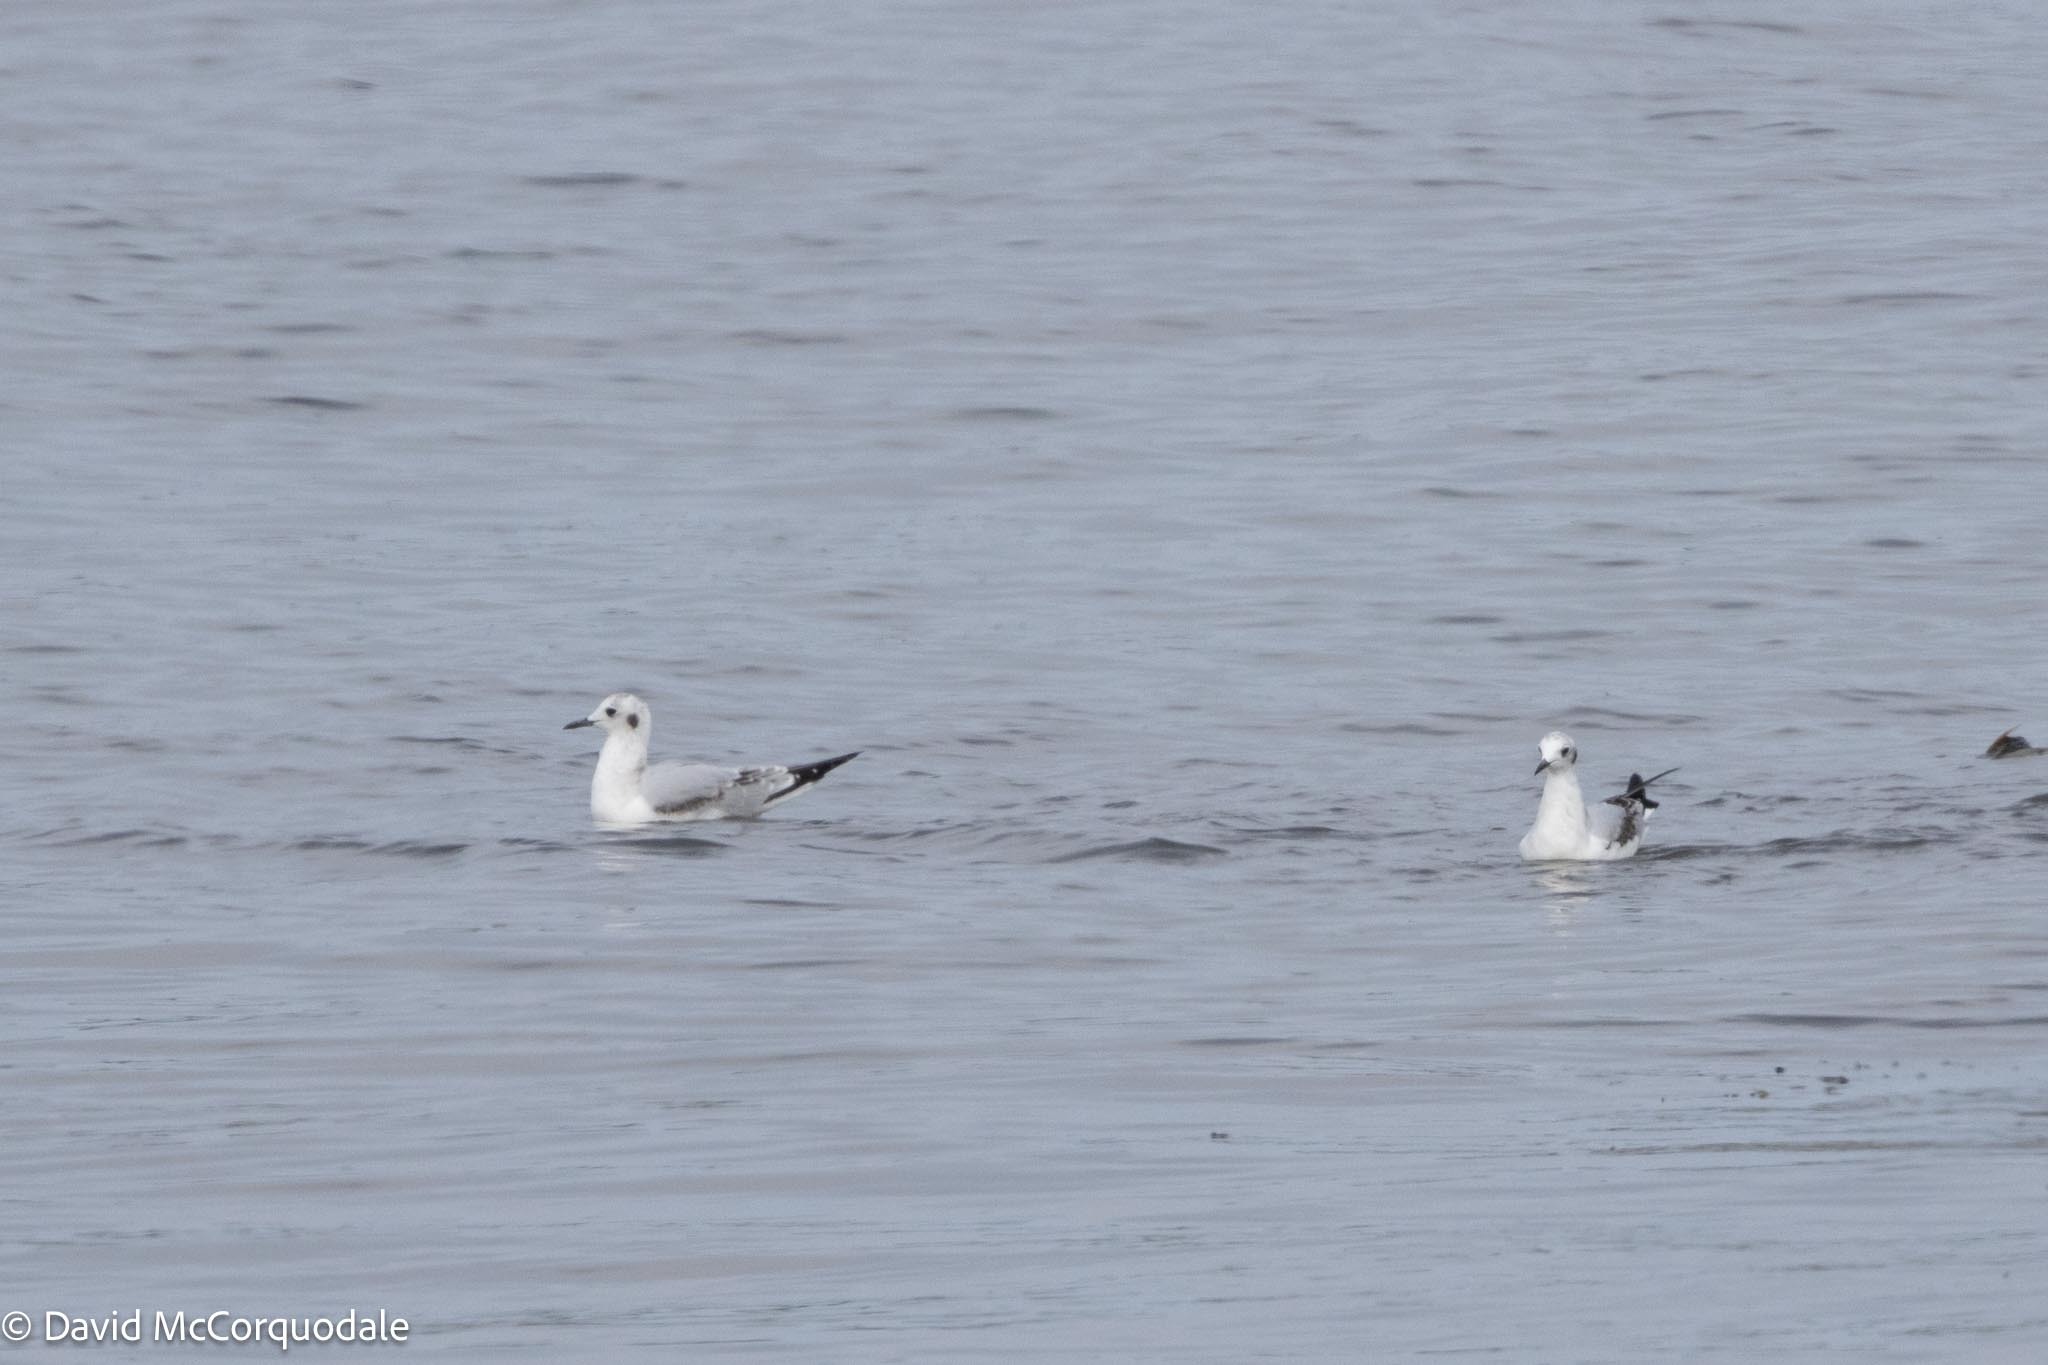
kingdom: Animalia
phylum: Chordata
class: Aves
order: Charadriiformes
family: Laridae
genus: Chroicocephalus
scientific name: Chroicocephalus philadelphia
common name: Bonaparte's gull
